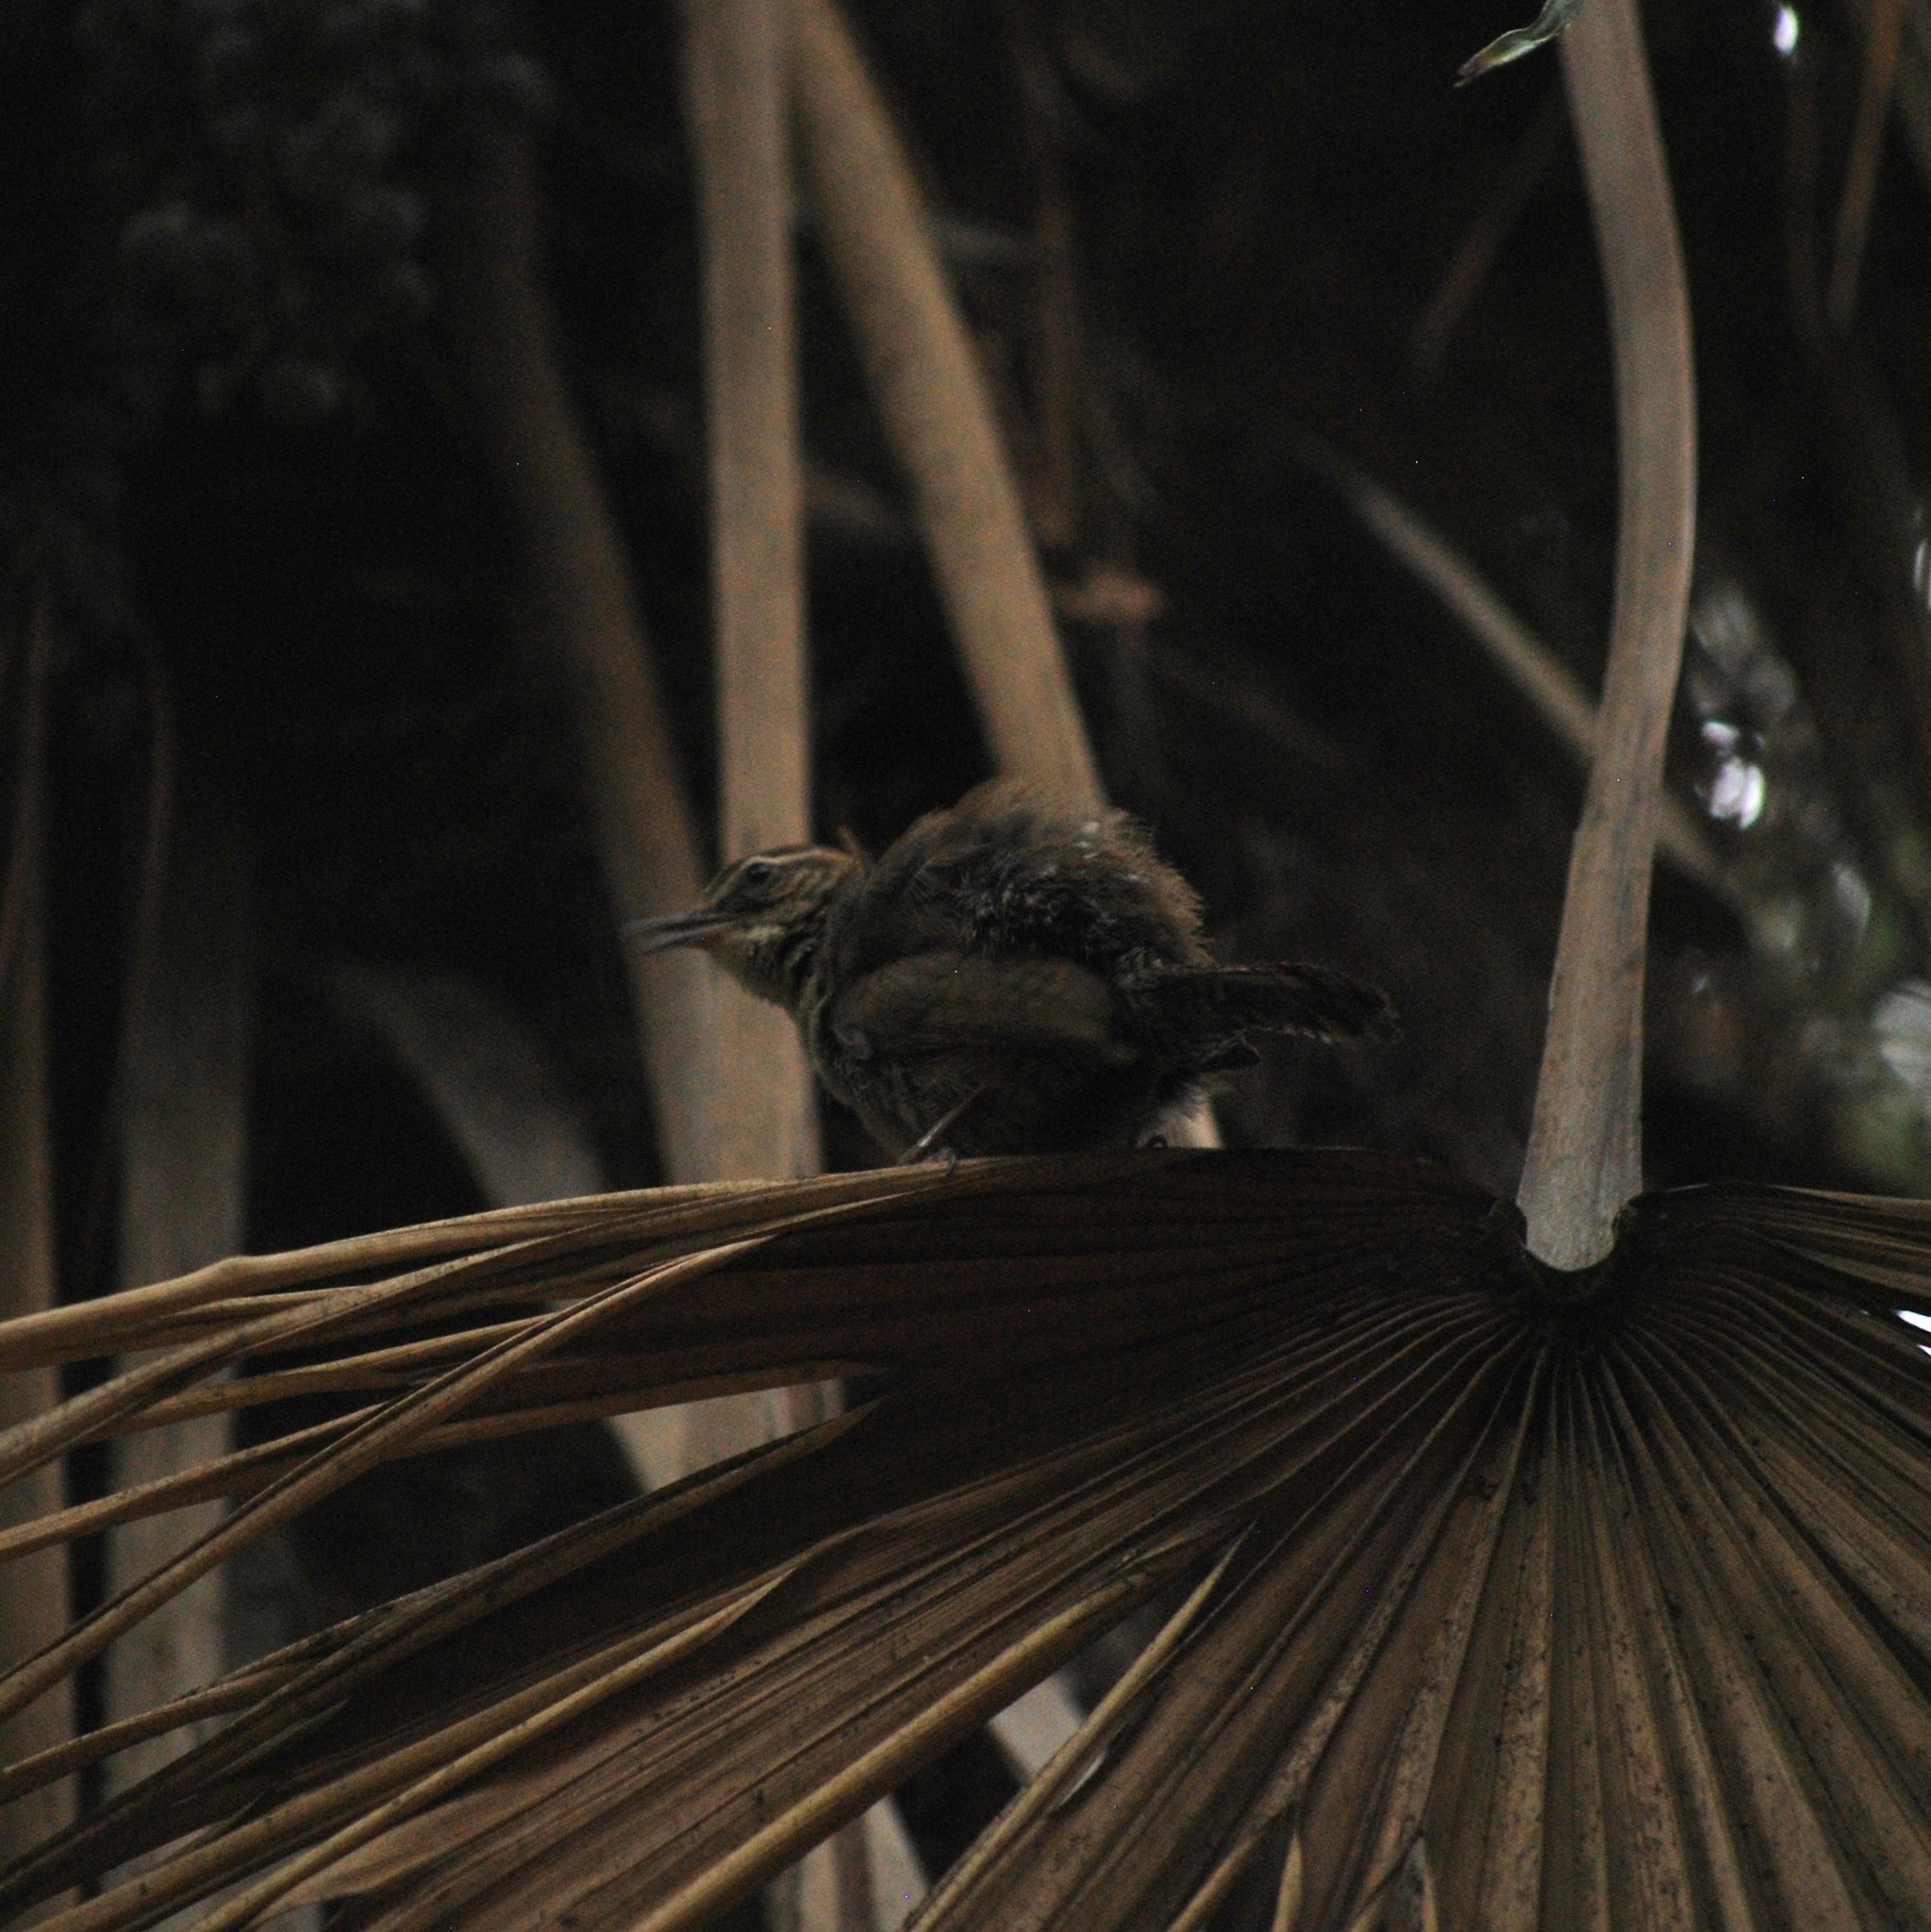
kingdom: Animalia
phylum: Chordata
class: Aves
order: Passeriformes
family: Troglodytidae
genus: Thryomanes
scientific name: Thryomanes bewickii
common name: Bewick's wren
